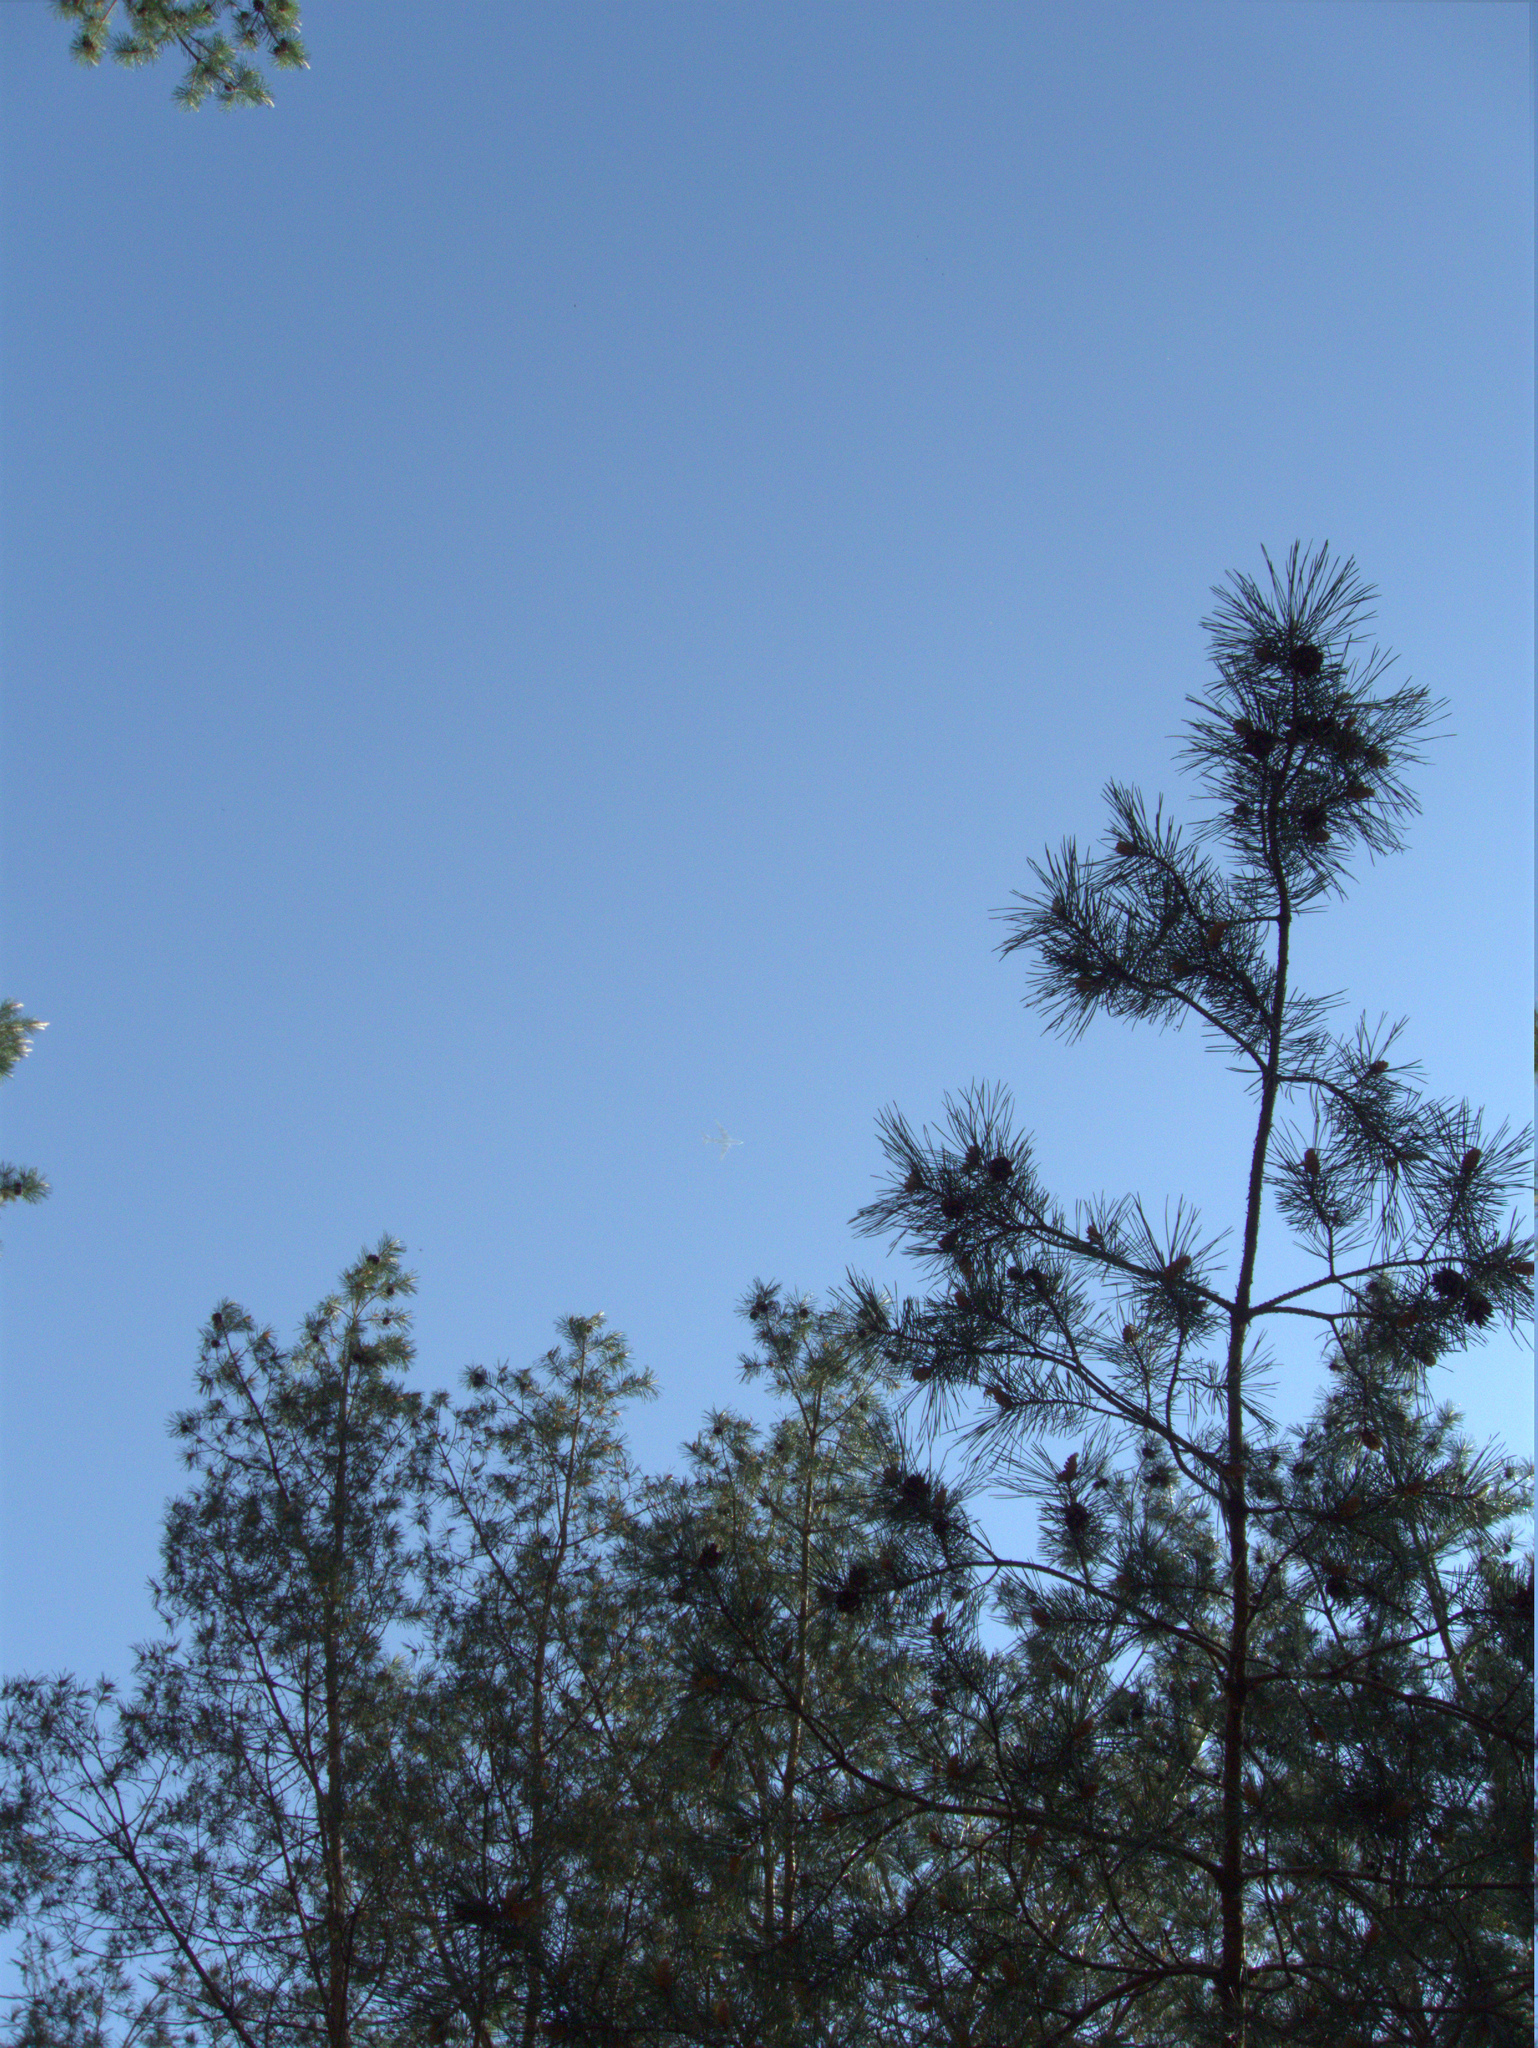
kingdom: Plantae
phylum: Tracheophyta
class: Pinopsida
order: Pinales
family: Pinaceae
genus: Pinus
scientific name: Pinus sylvestris
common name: Scots pine
